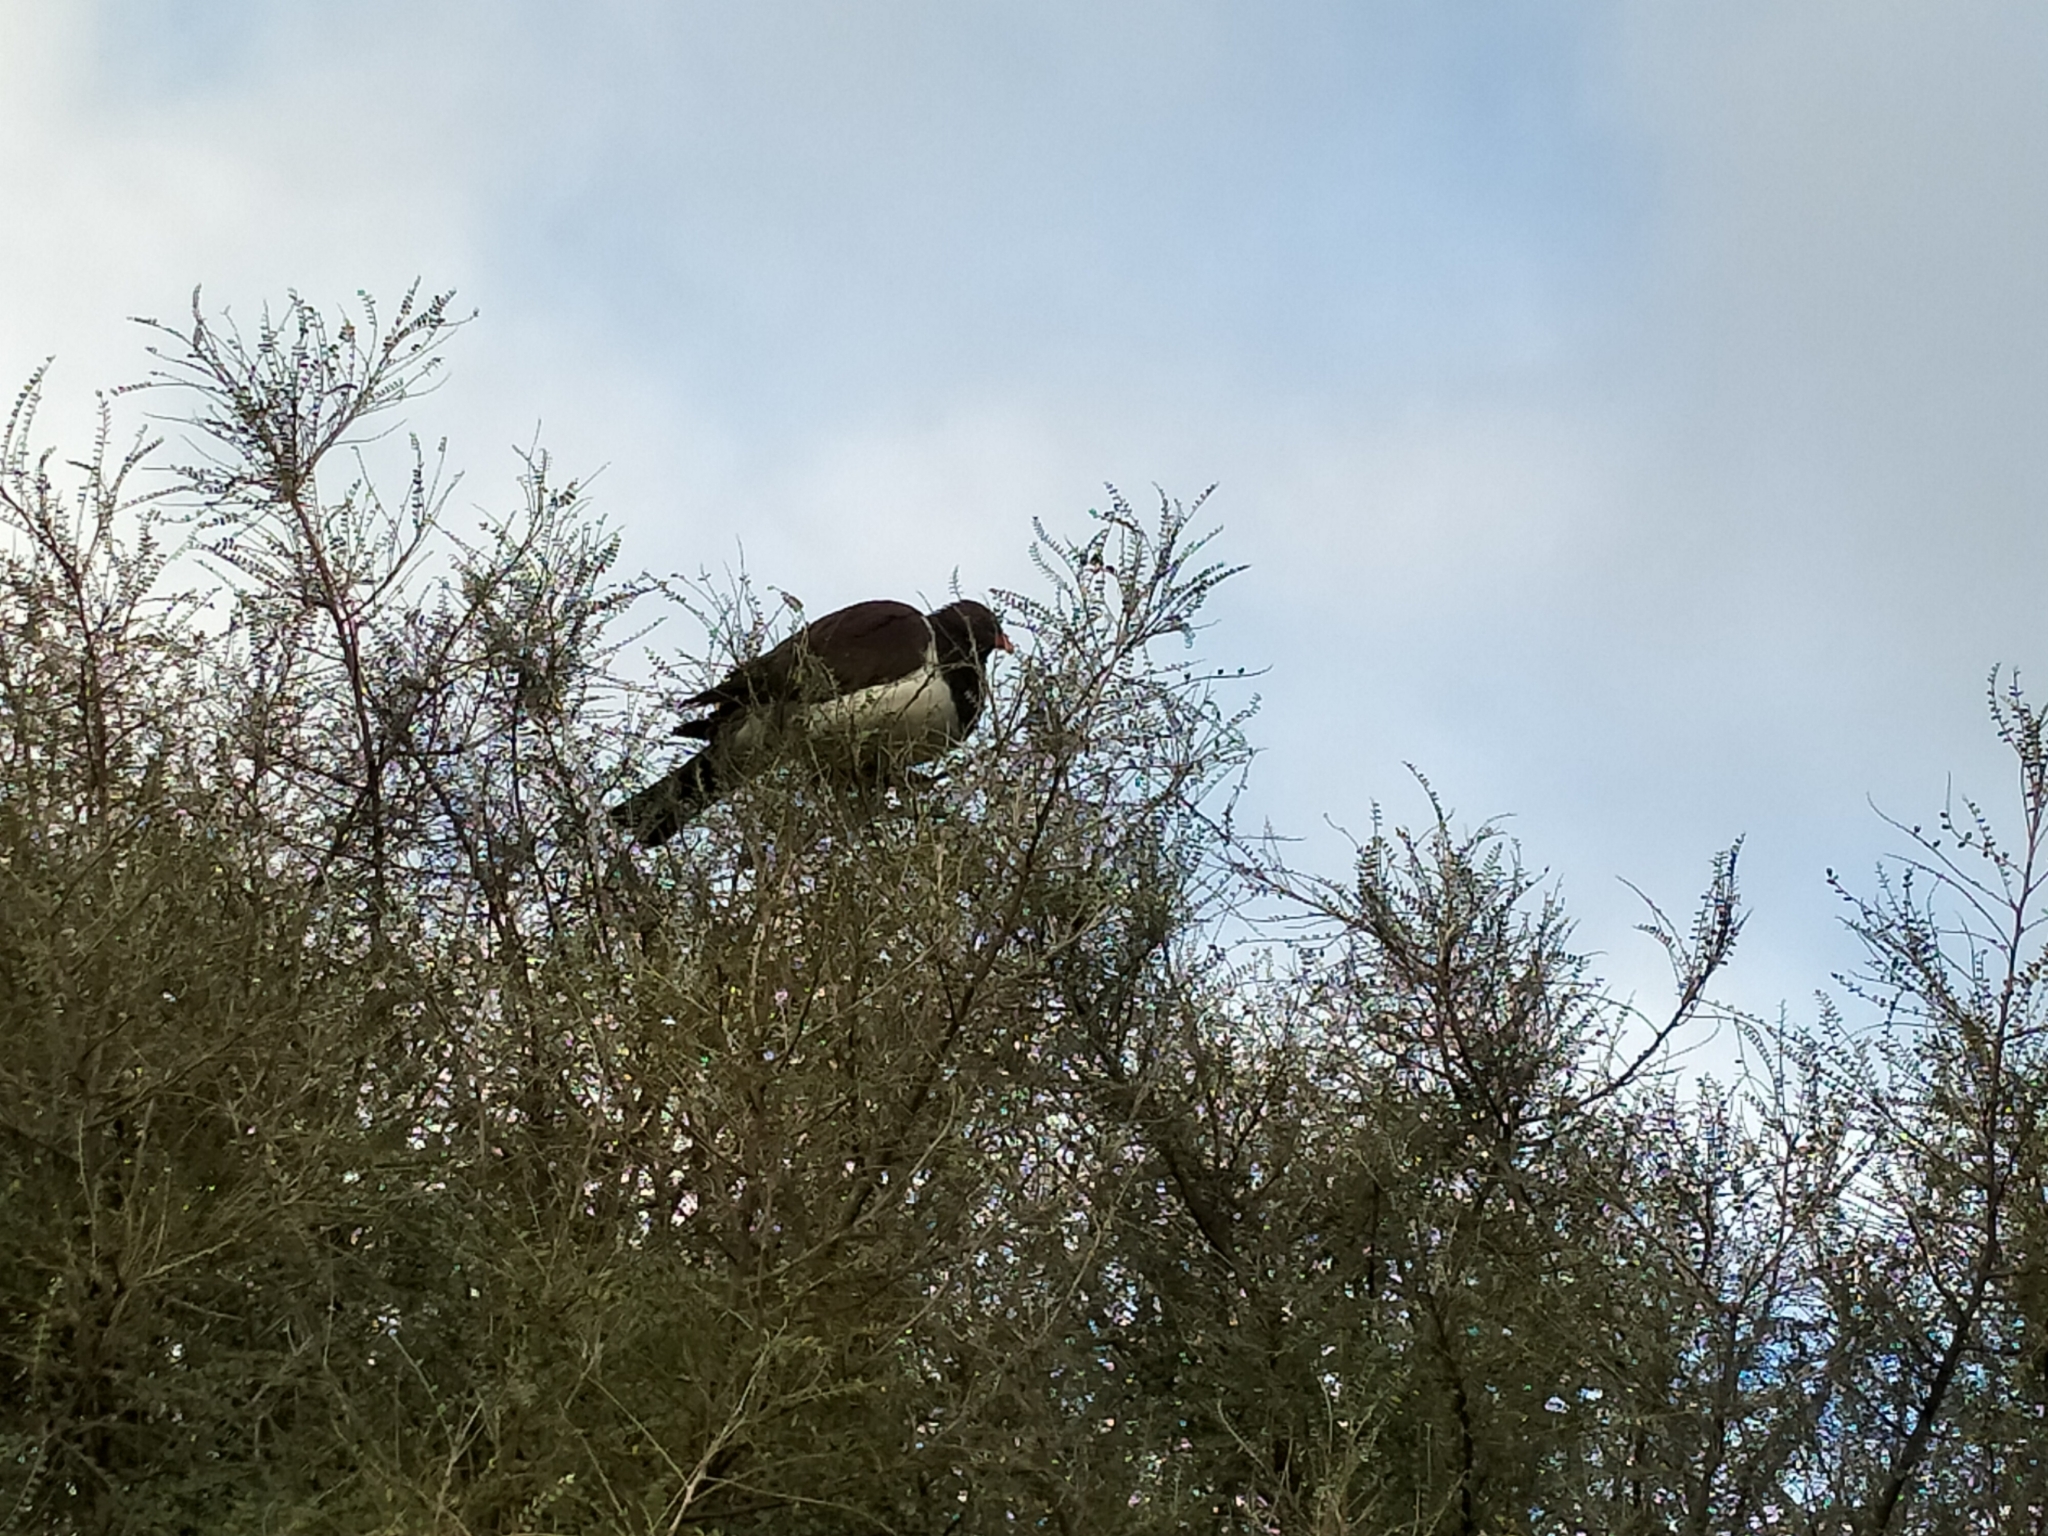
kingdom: Animalia
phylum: Chordata
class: Aves
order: Columbiformes
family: Columbidae
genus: Hemiphaga
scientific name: Hemiphaga novaeseelandiae
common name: New zealand pigeon
